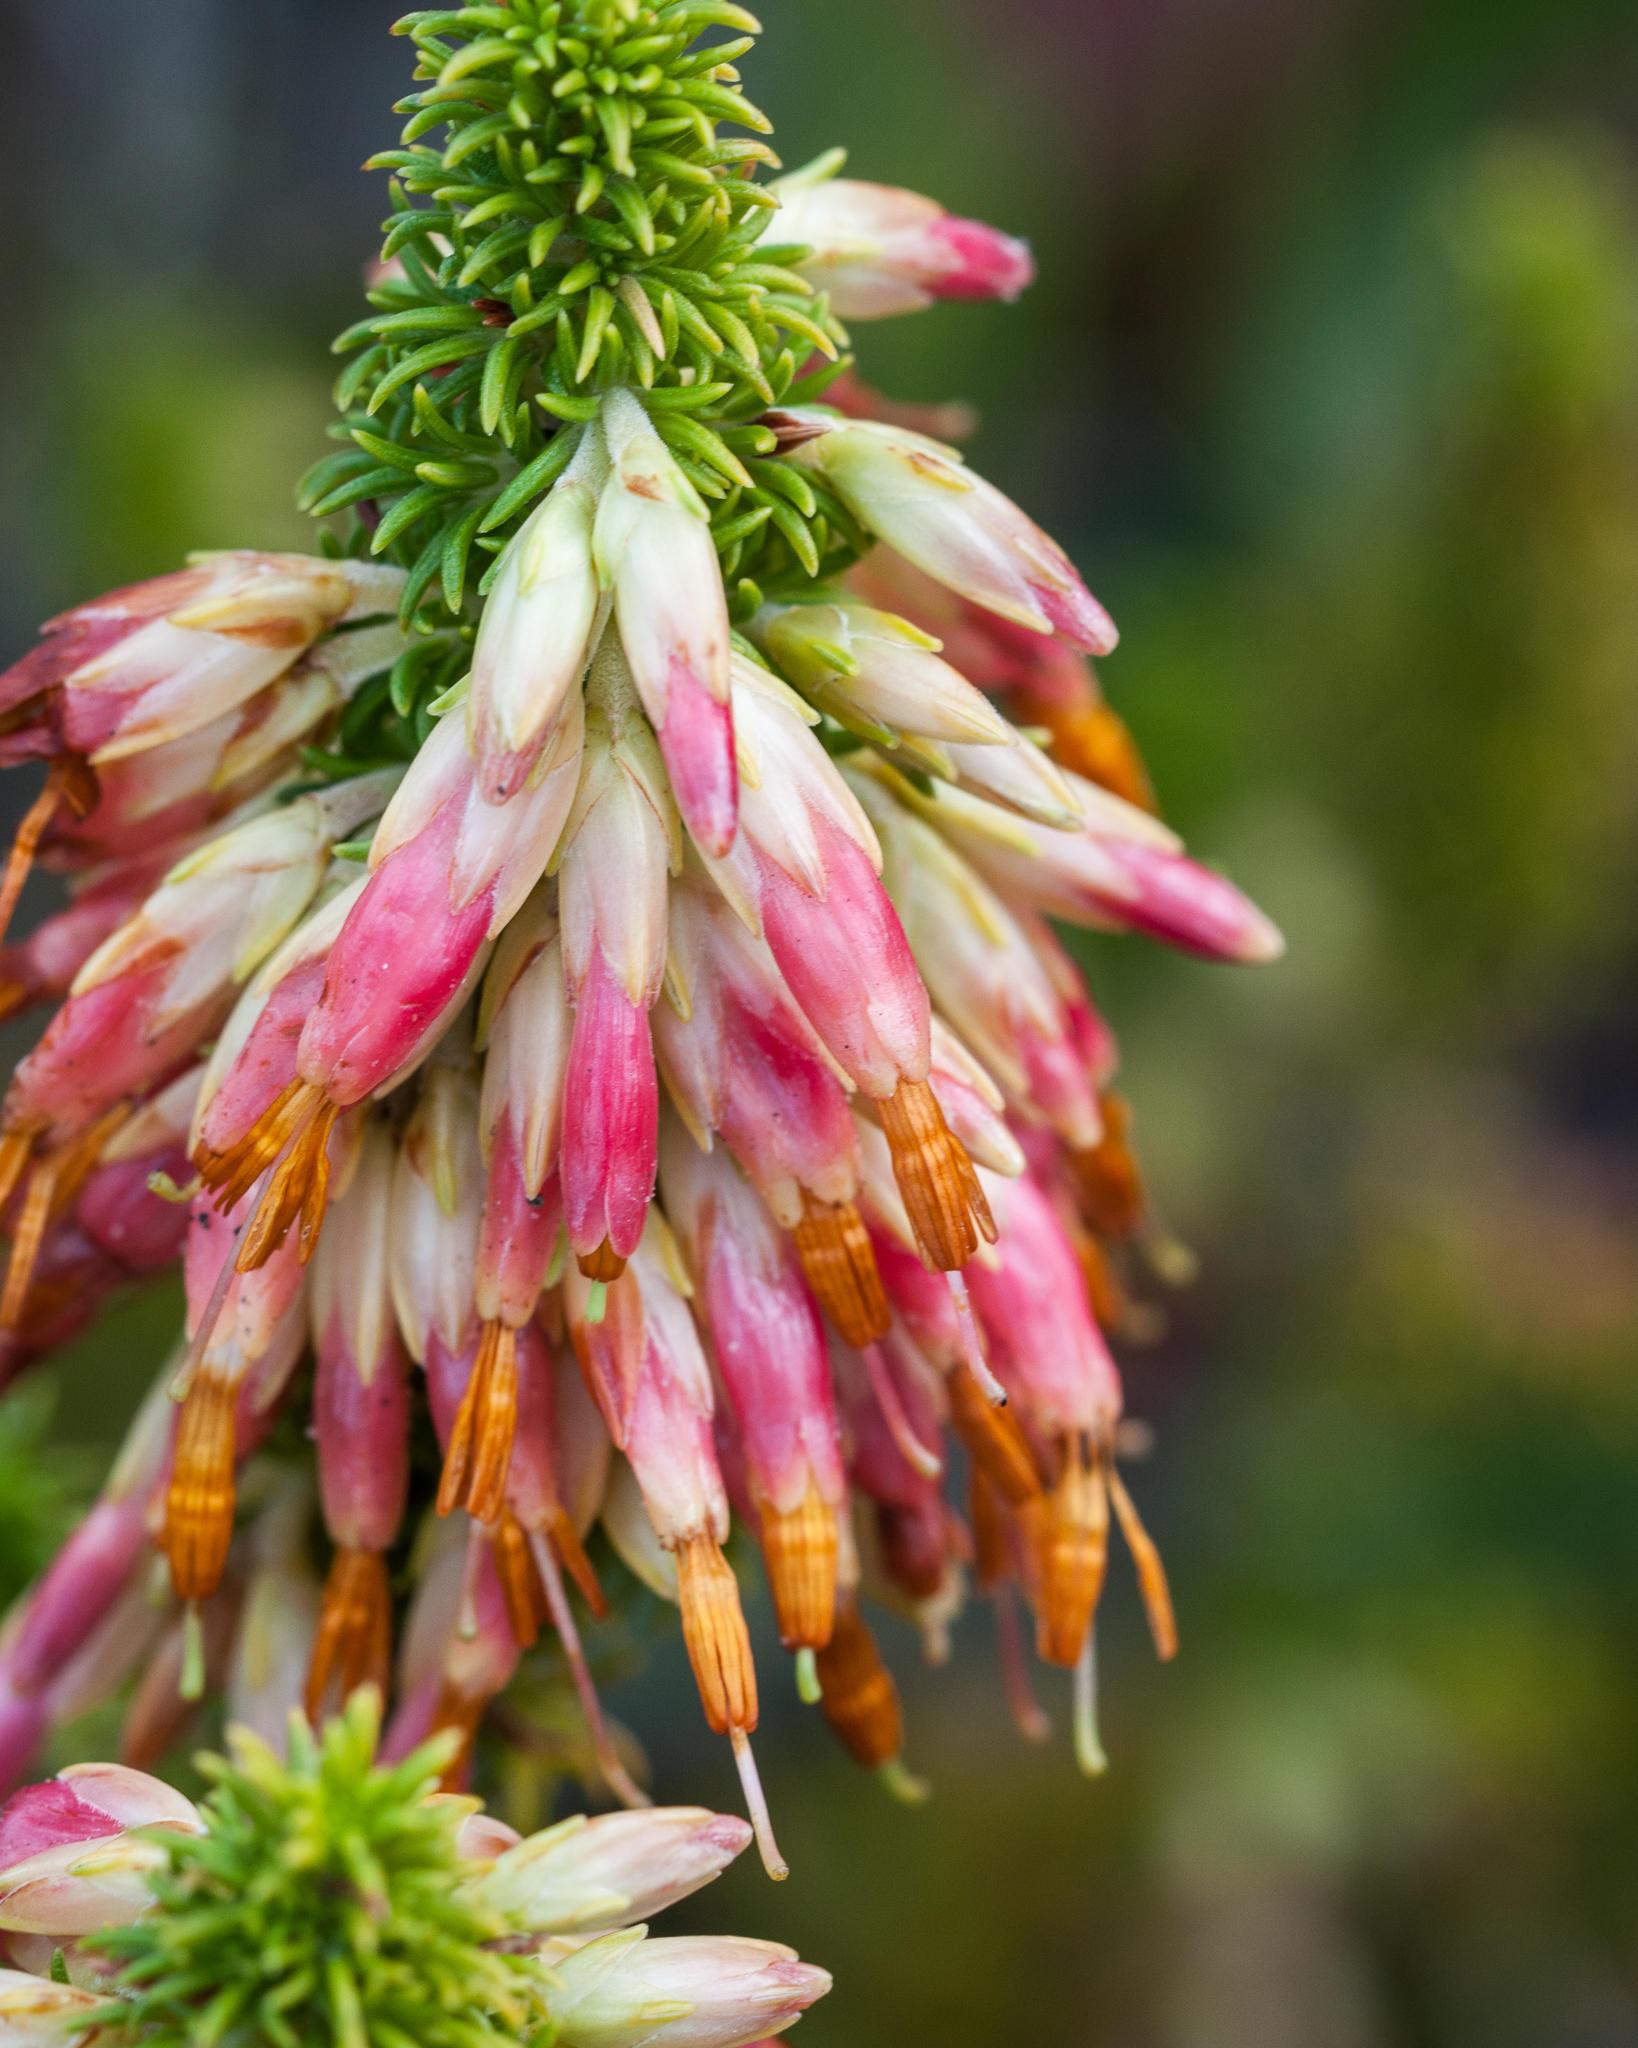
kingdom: Plantae
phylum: Tracheophyta
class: Magnoliopsida
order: Ericales
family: Ericaceae
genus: Erica
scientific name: Erica coccinea
